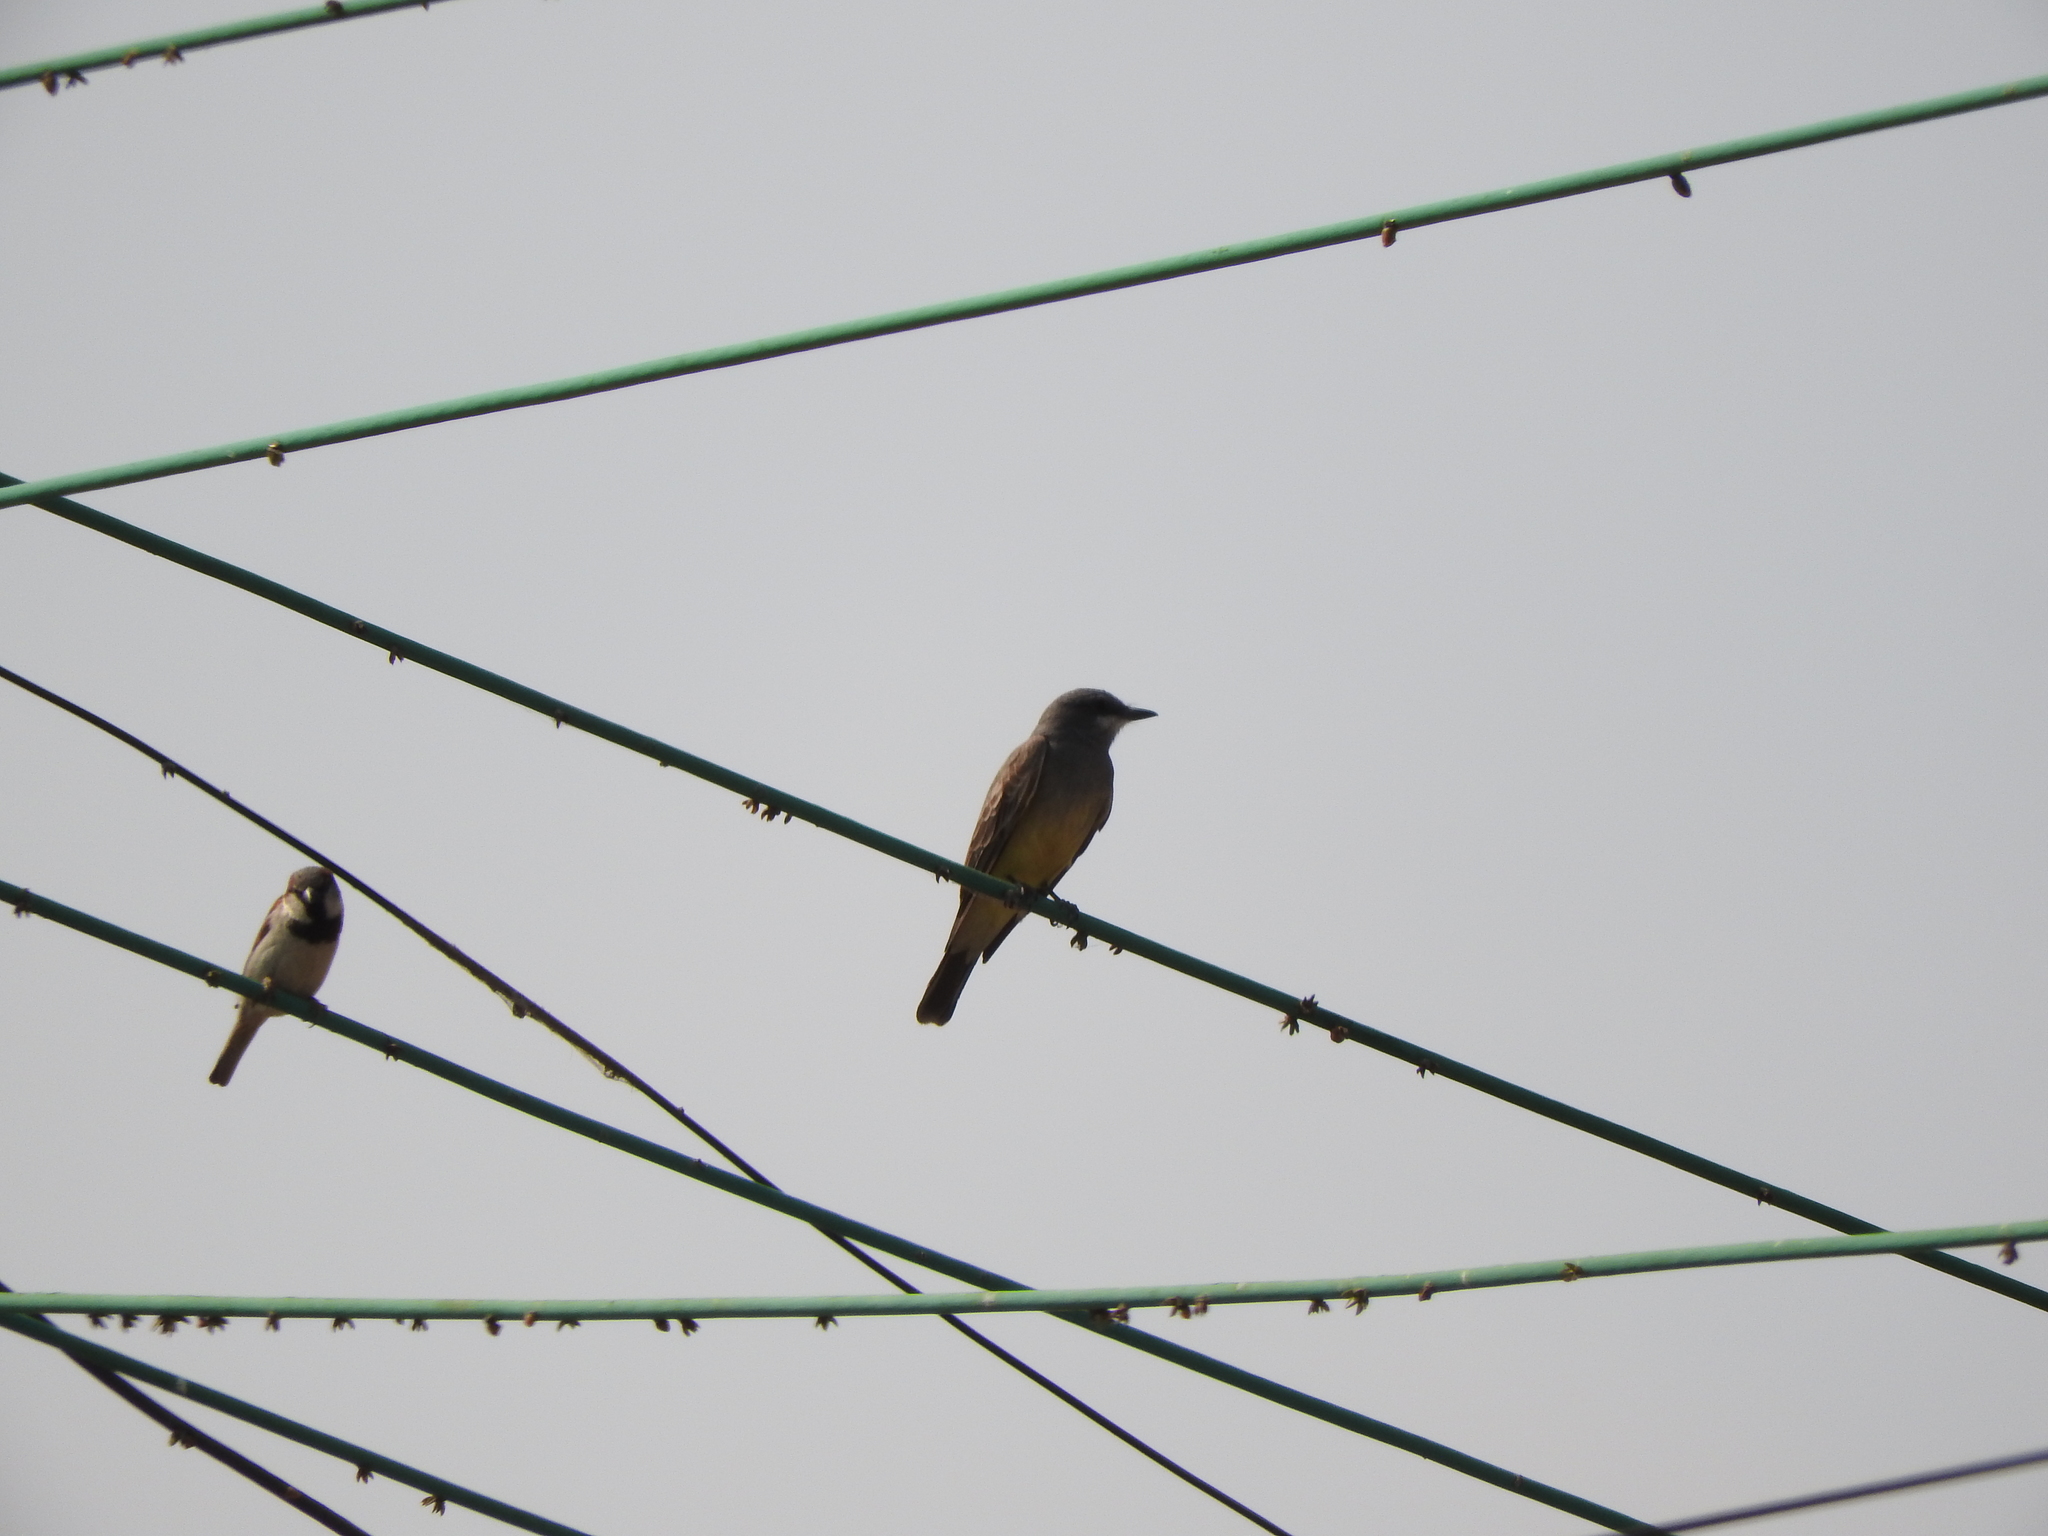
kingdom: Animalia
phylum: Chordata
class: Aves
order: Passeriformes
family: Tyrannidae
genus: Tyrannus
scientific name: Tyrannus vociferans
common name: Cassin's kingbird
